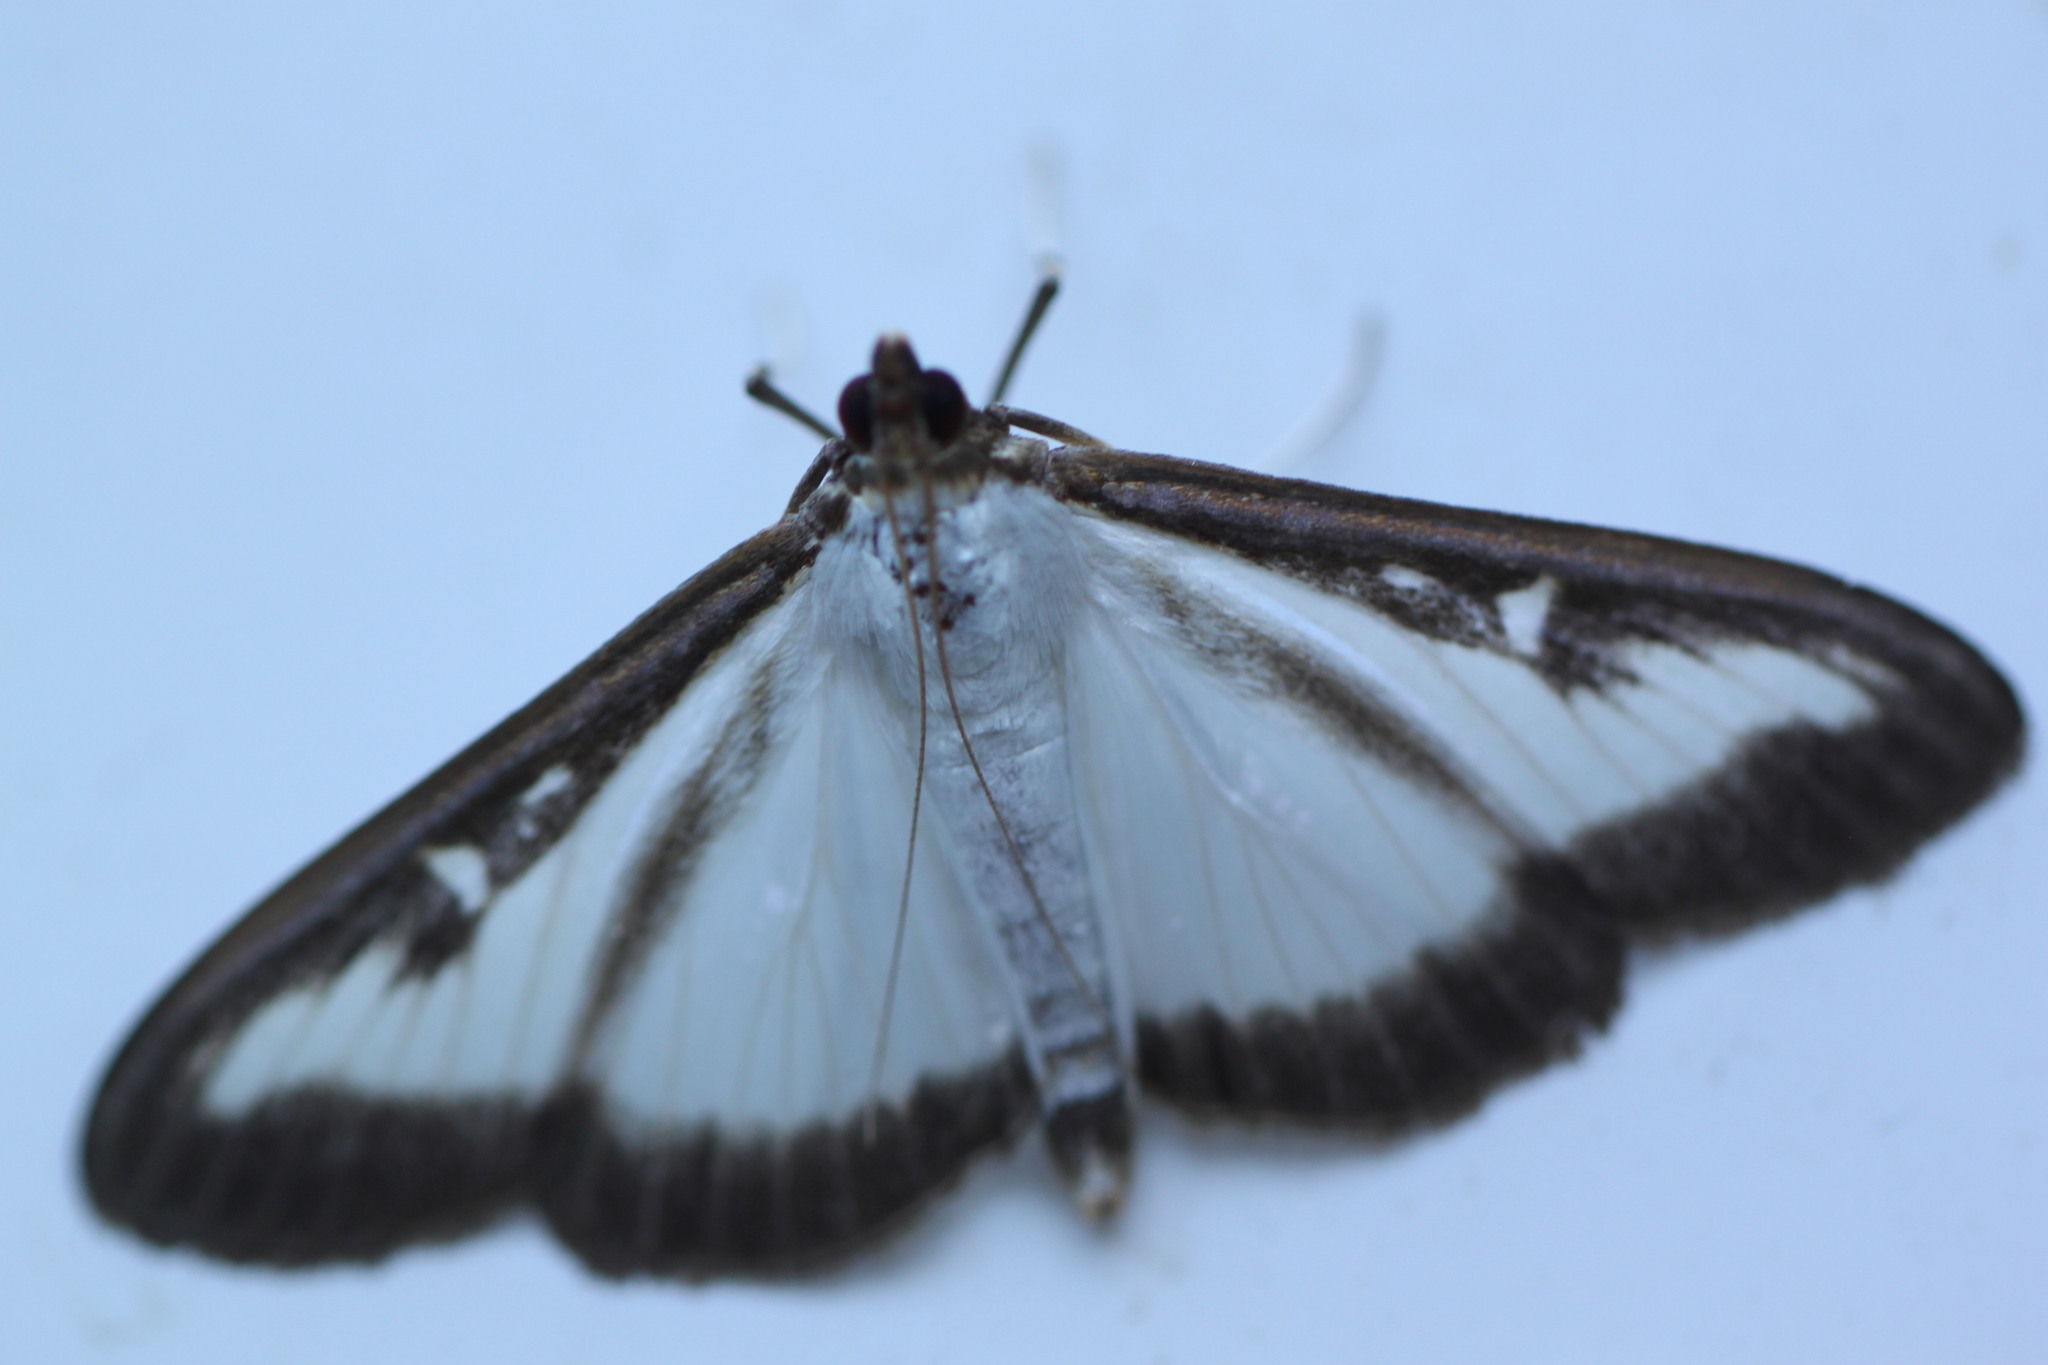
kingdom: Animalia
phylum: Arthropoda
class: Insecta
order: Lepidoptera
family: Crambidae
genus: Cydalima
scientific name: Cydalima perspectalis
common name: Box tree moth
